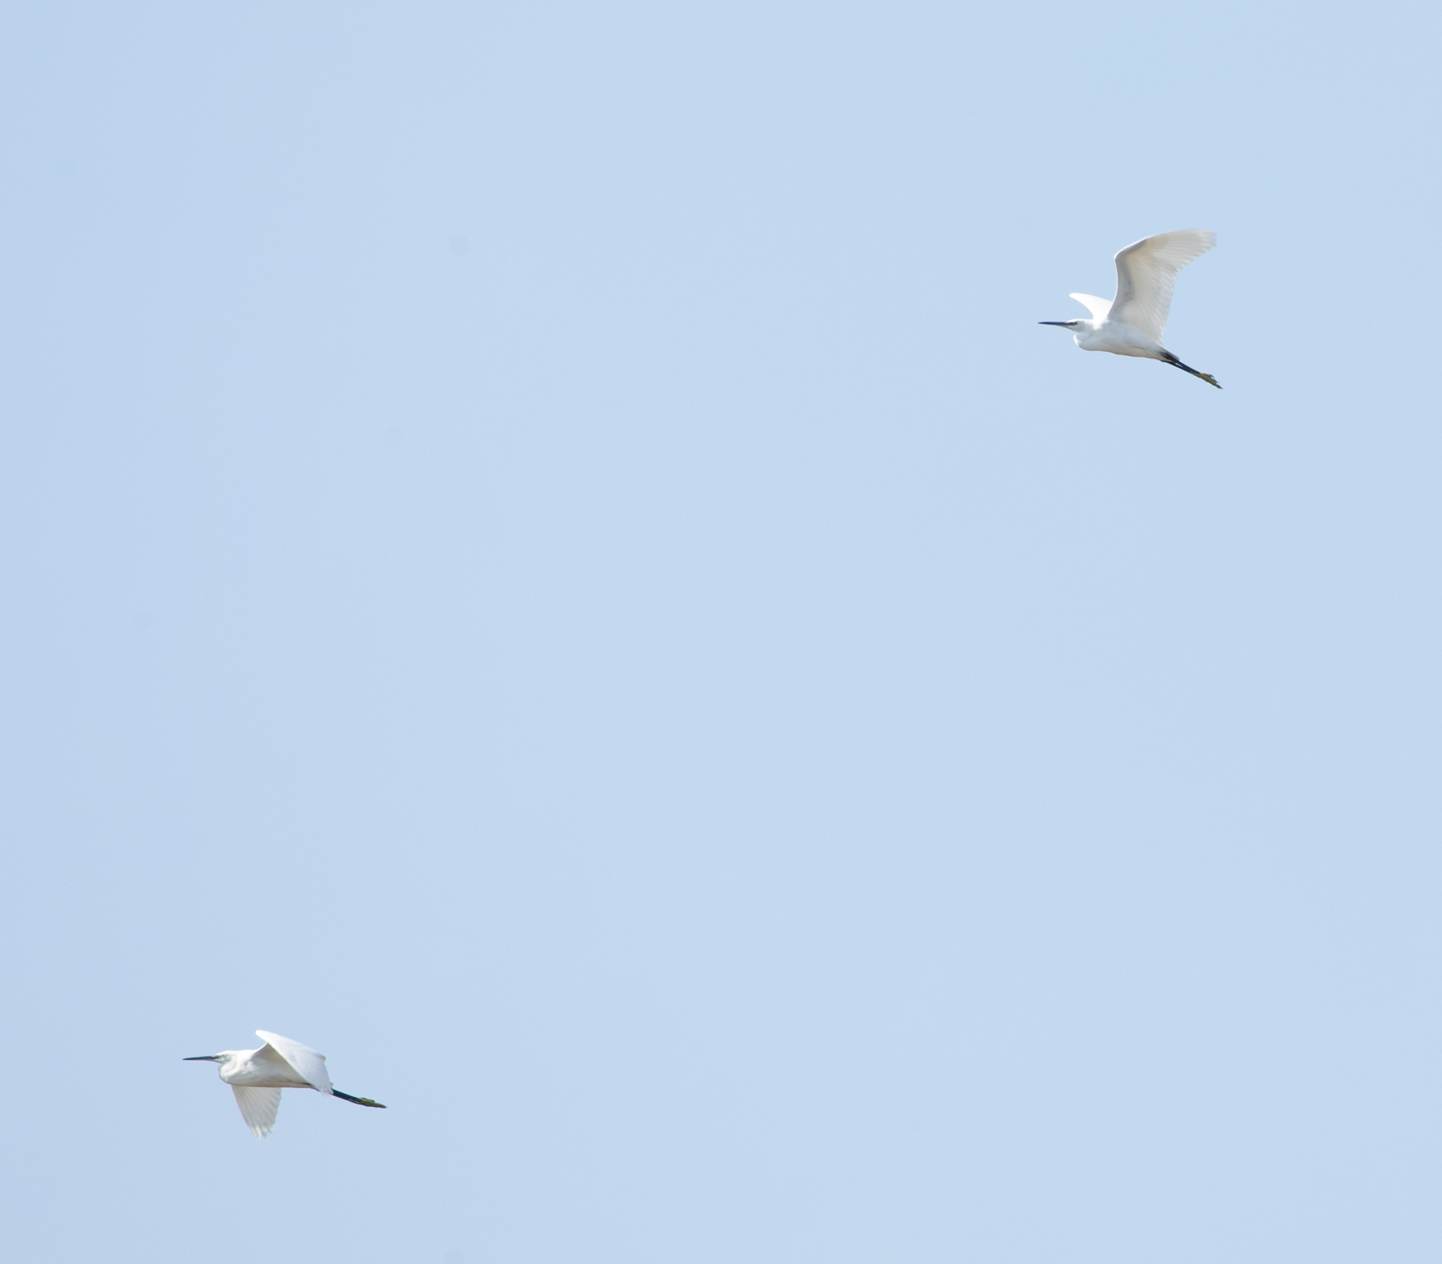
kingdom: Animalia
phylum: Chordata
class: Aves
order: Pelecaniformes
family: Ardeidae
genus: Egretta
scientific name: Egretta garzetta
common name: Little egret
